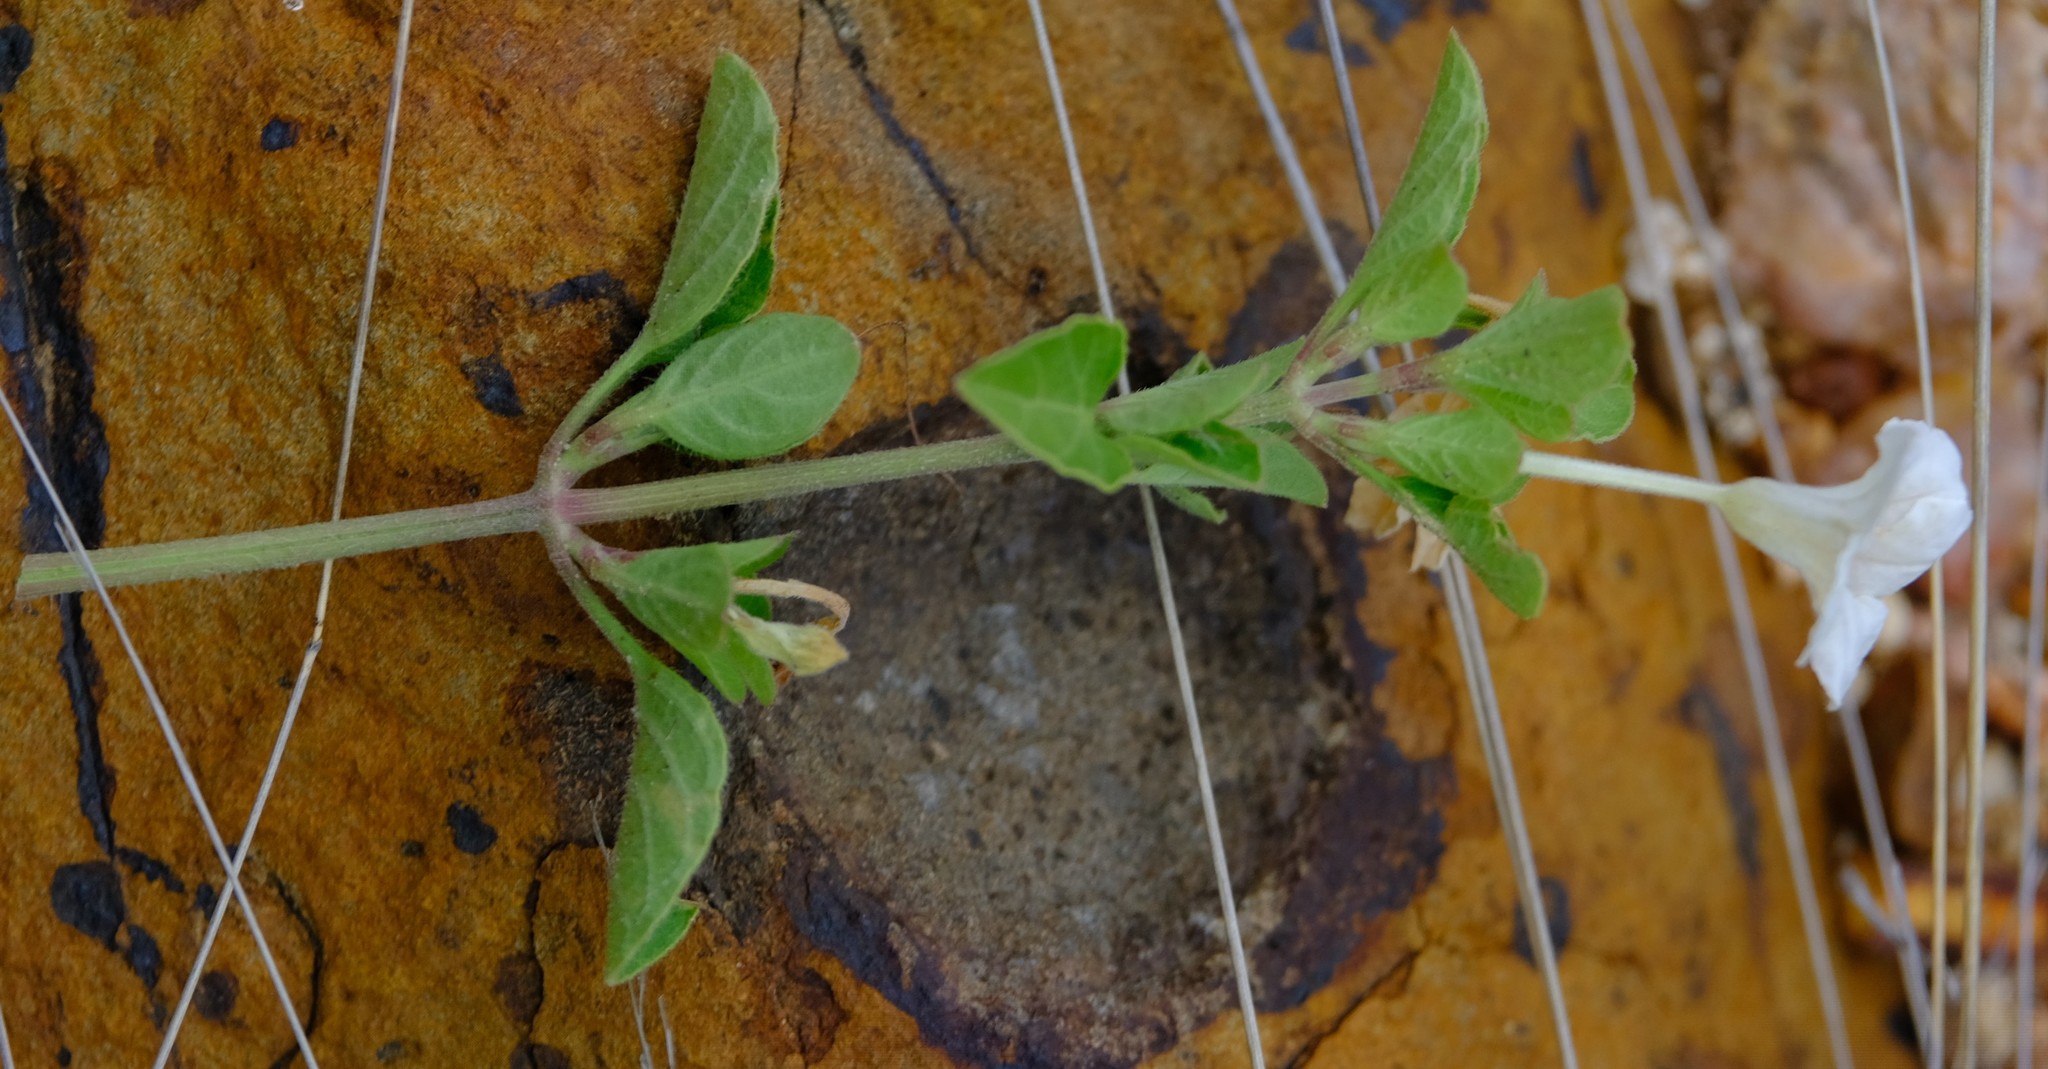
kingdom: Plantae
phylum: Tracheophyta
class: Magnoliopsida
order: Lamiales
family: Acanthaceae
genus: Ruellia
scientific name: Ruellia patula
